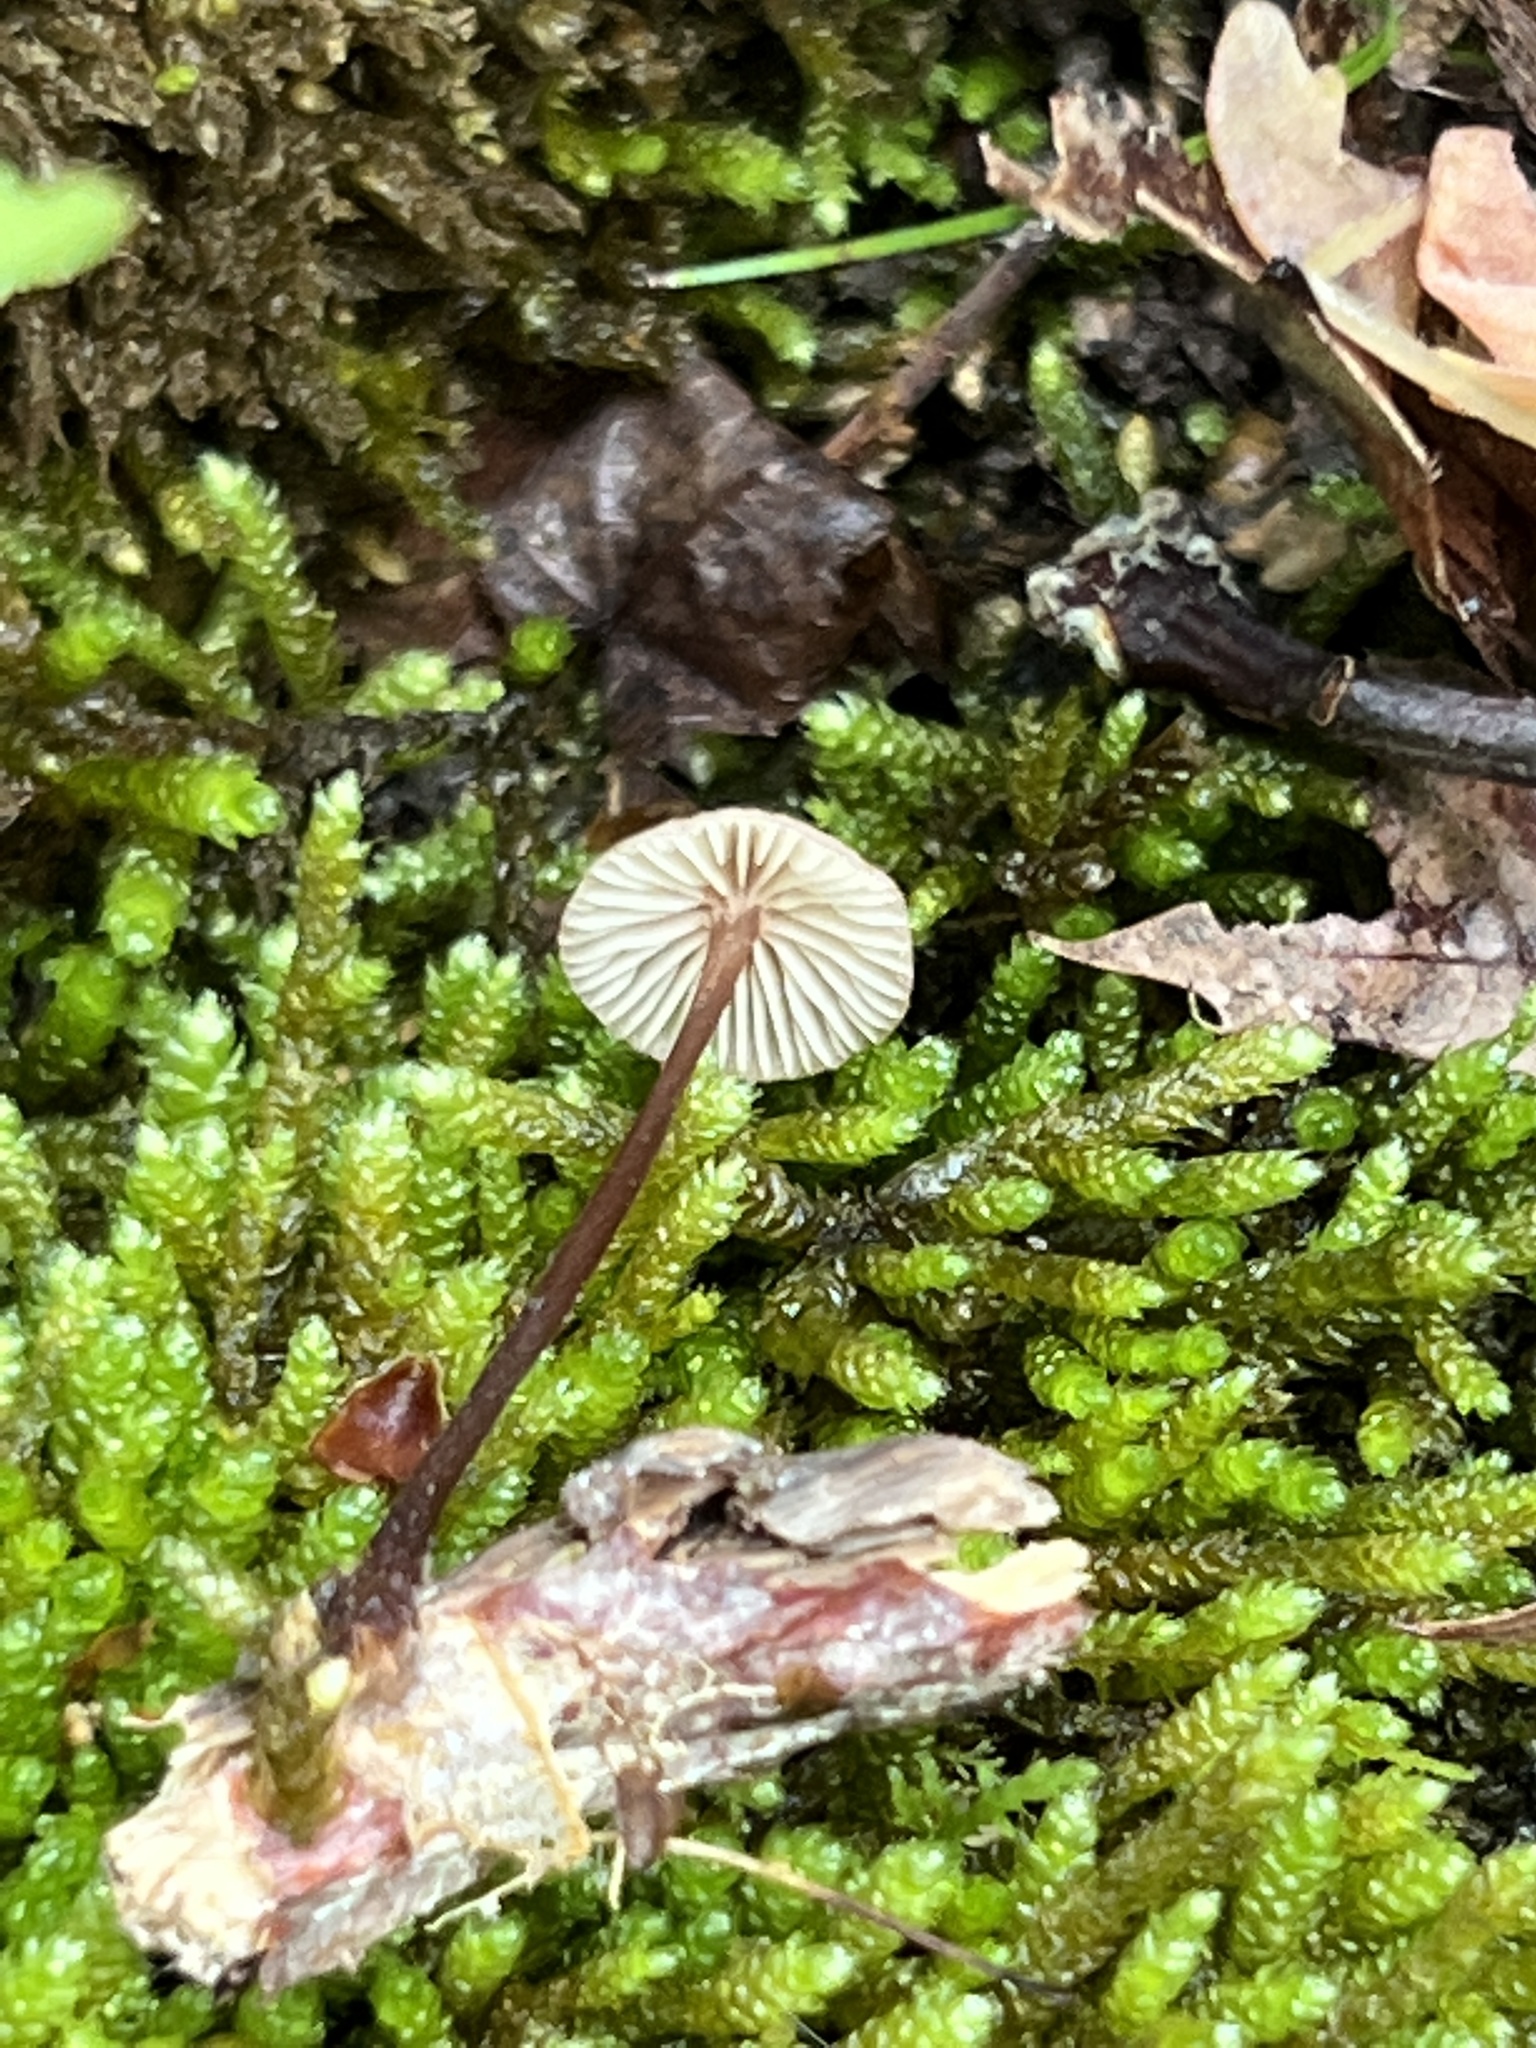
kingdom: Fungi
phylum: Basidiomycota
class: Agaricomycetes
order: Agaricales
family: Omphalotaceae
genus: Gymnopus
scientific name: Gymnopus semihirtipes
